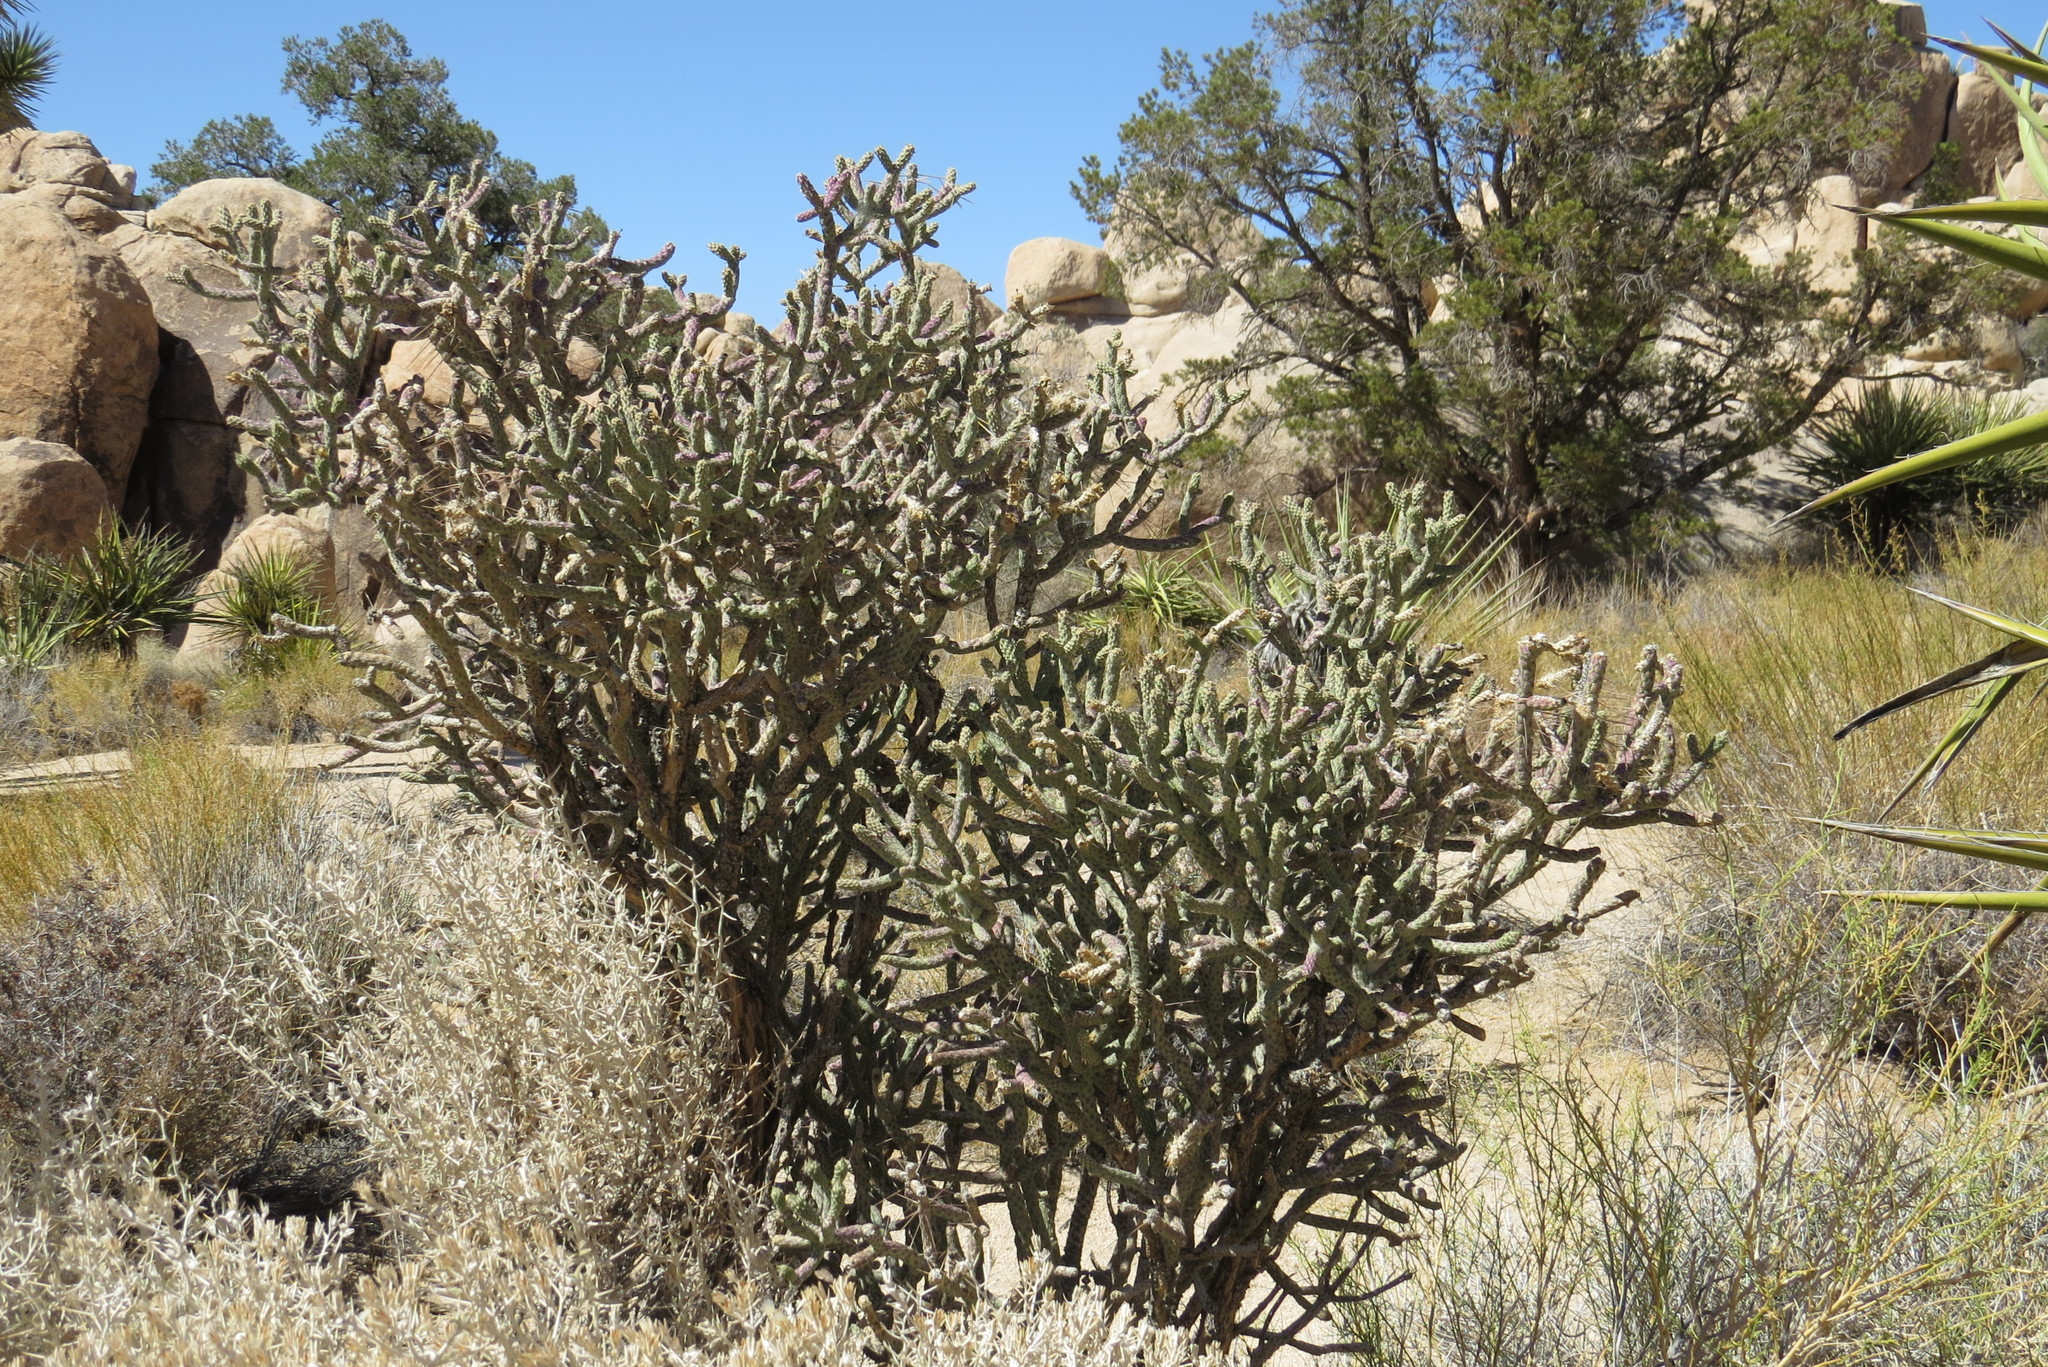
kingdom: Plantae
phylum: Tracheophyta
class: Magnoliopsida
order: Caryophyllales
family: Cactaceae
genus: Cylindropuntia
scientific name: Cylindropuntia ramosissima
